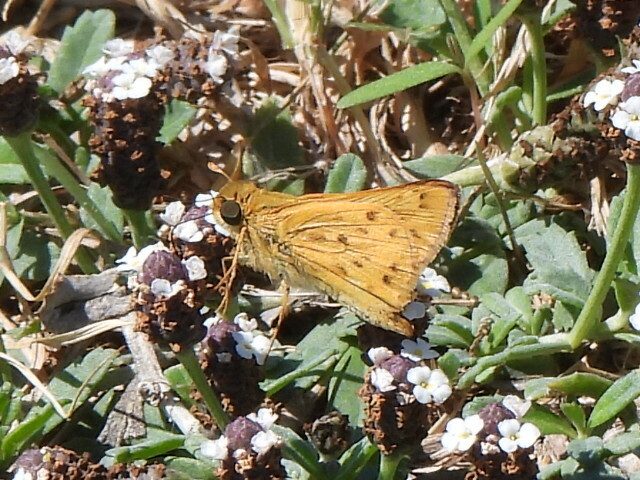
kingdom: Animalia
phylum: Arthropoda
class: Insecta
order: Lepidoptera
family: Hesperiidae
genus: Hylephila
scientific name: Hylephila phyleus
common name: Fiery skipper
